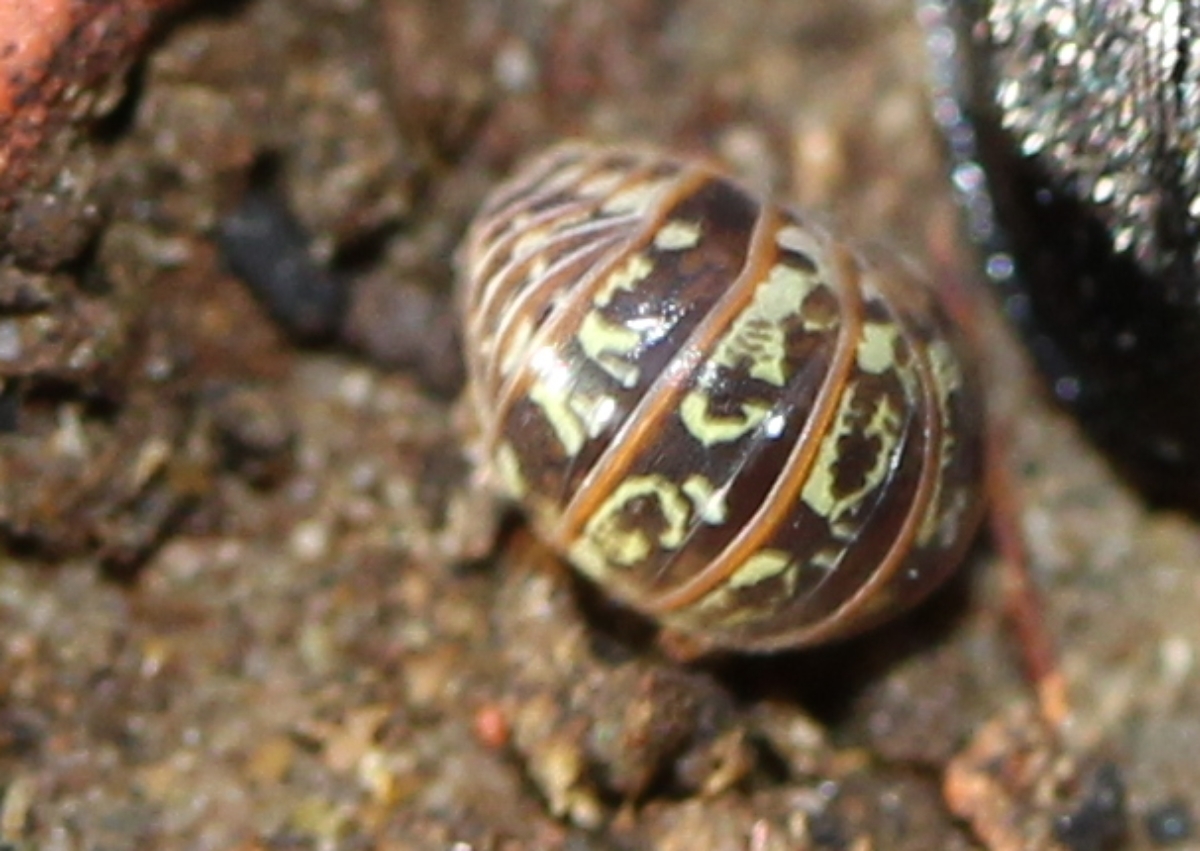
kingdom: Animalia
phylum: Arthropoda
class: Malacostraca
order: Isopoda
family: Armadillidiidae
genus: Armadillidium
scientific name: Armadillidium pictum
